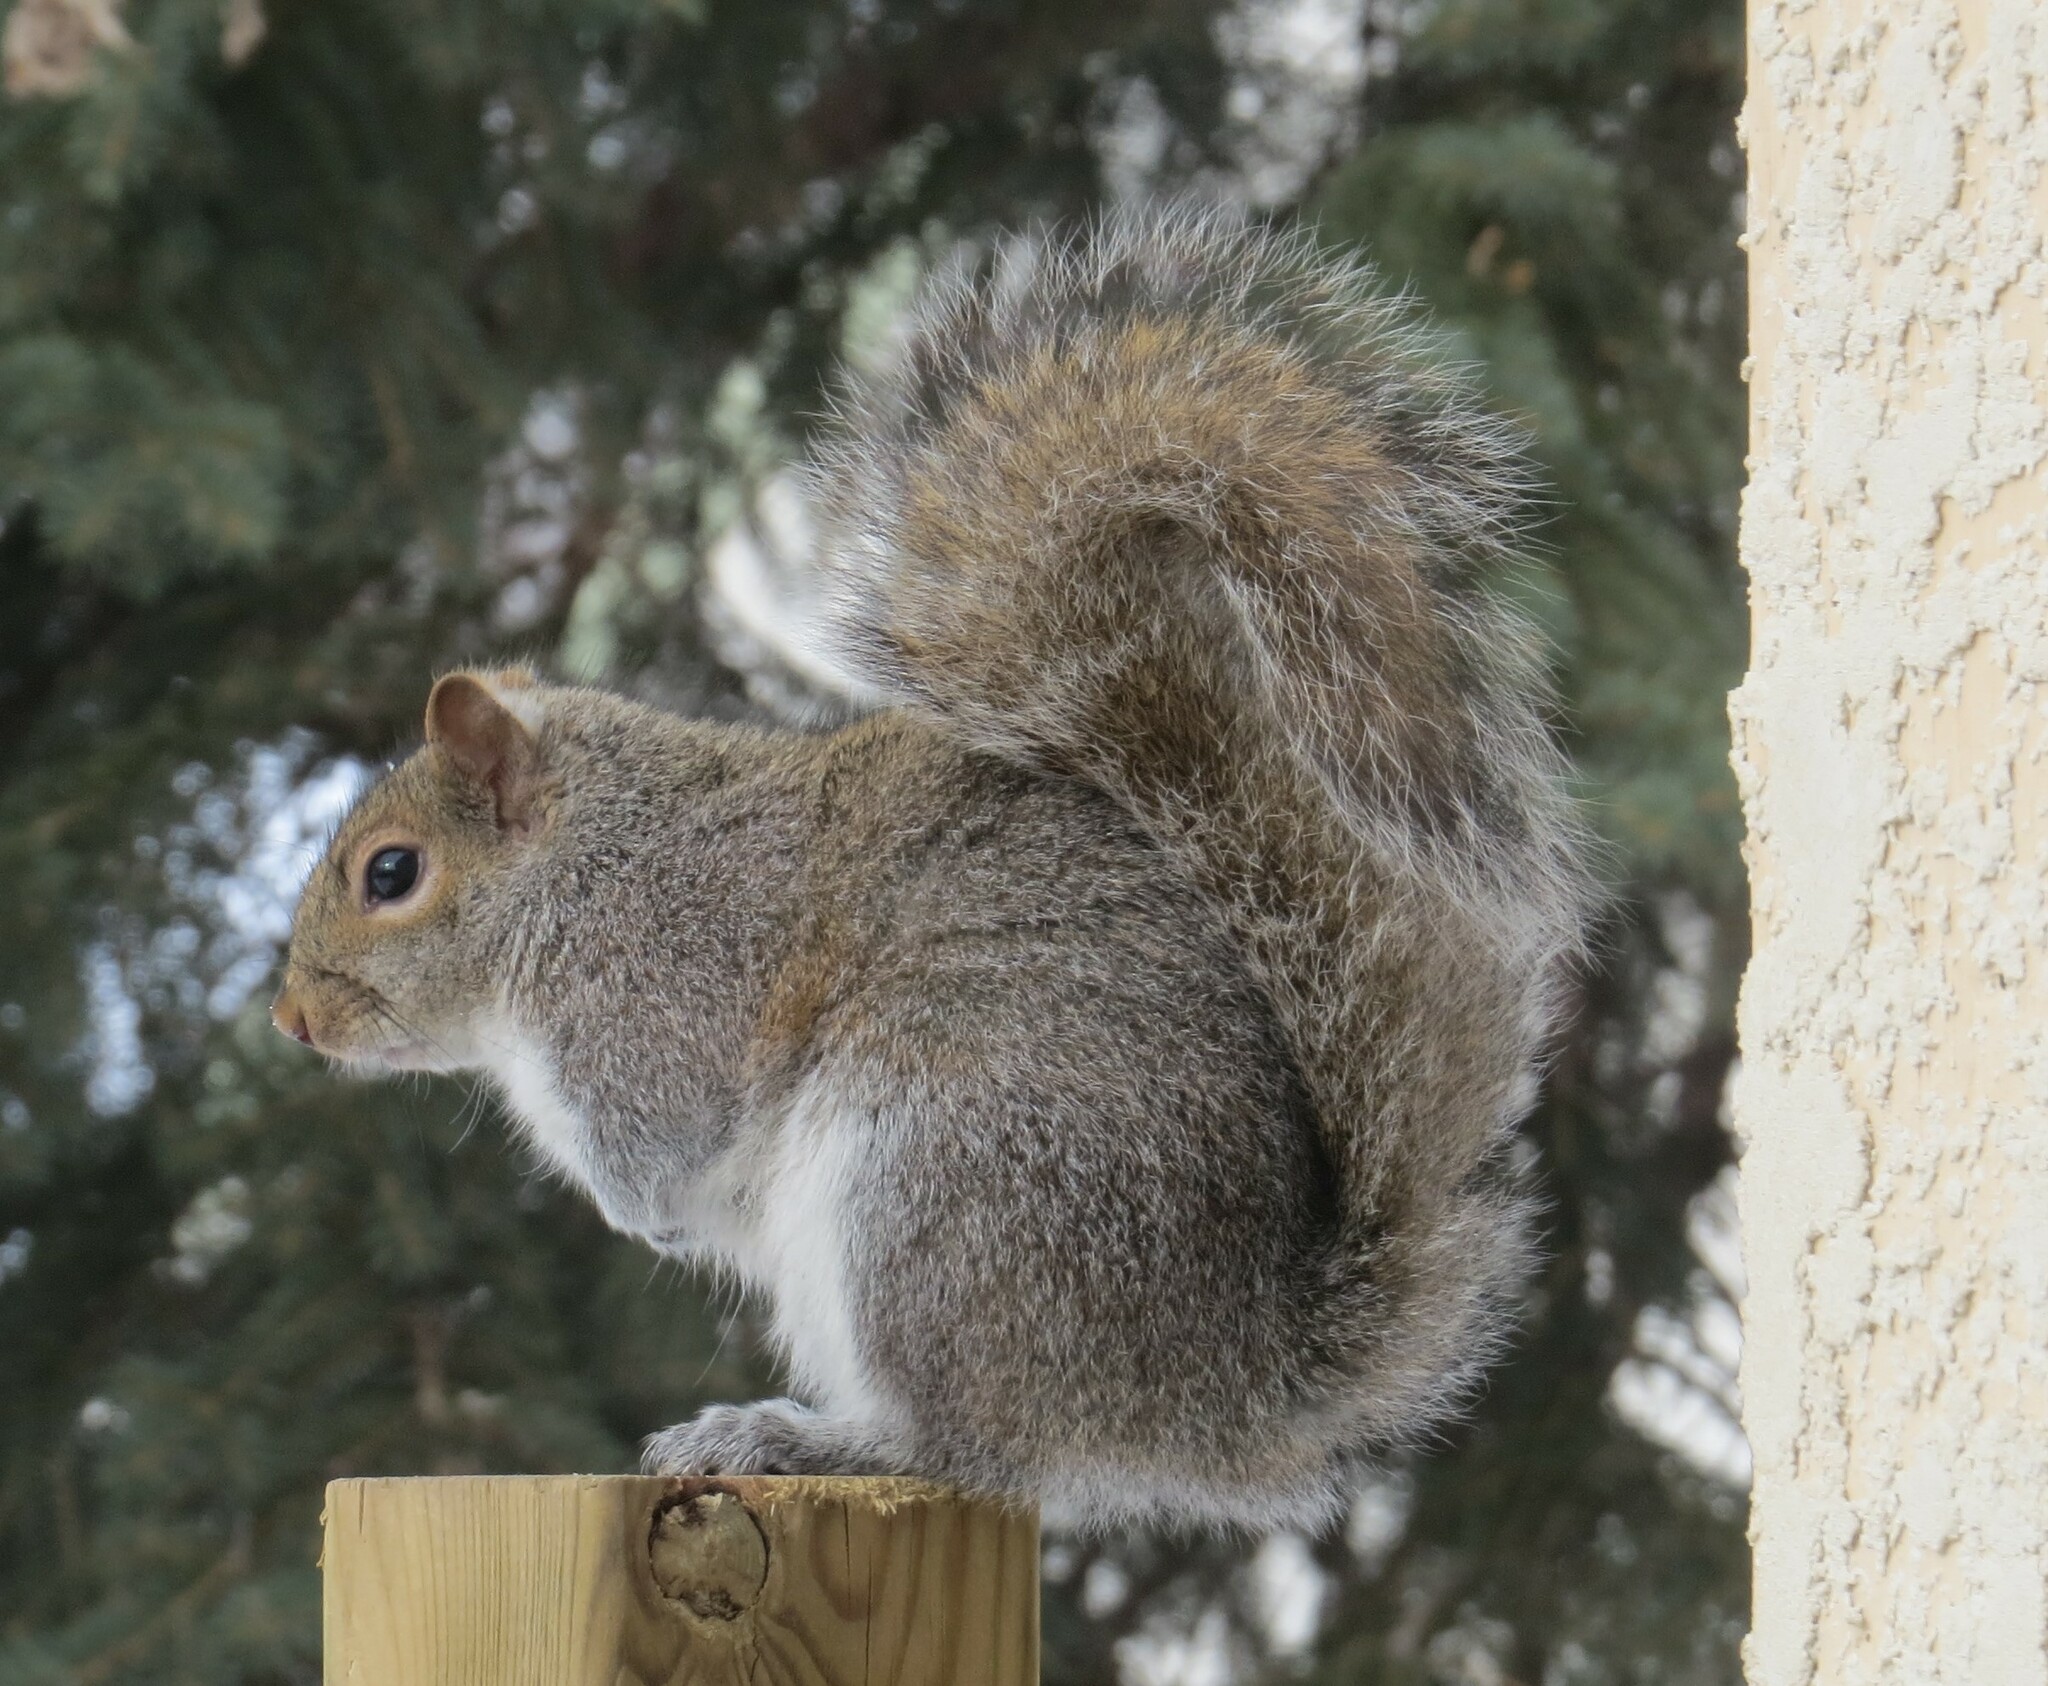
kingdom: Animalia
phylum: Chordata
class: Mammalia
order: Rodentia
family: Sciuridae
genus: Sciurus
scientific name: Sciurus carolinensis
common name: Eastern gray squirrel
